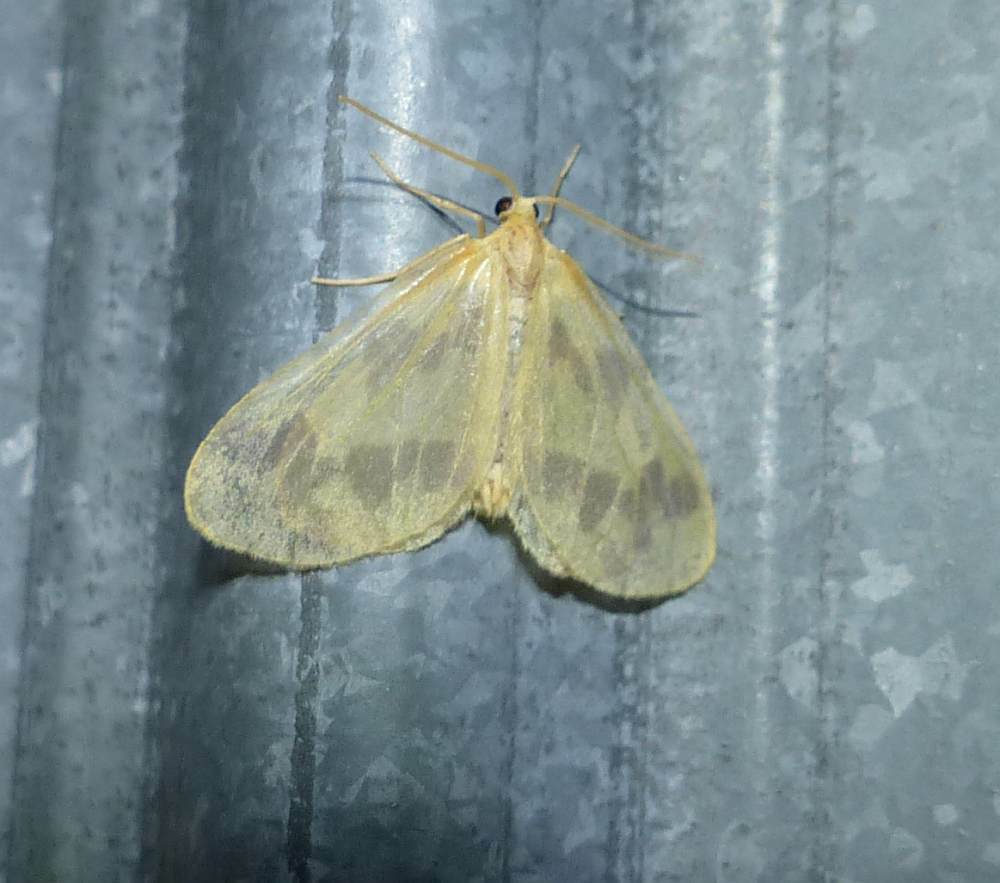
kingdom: Animalia
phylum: Arthropoda
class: Insecta
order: Lepidoptera
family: Geometridae
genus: Eubaphe
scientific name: Eubaphe mendica
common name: Beggar
